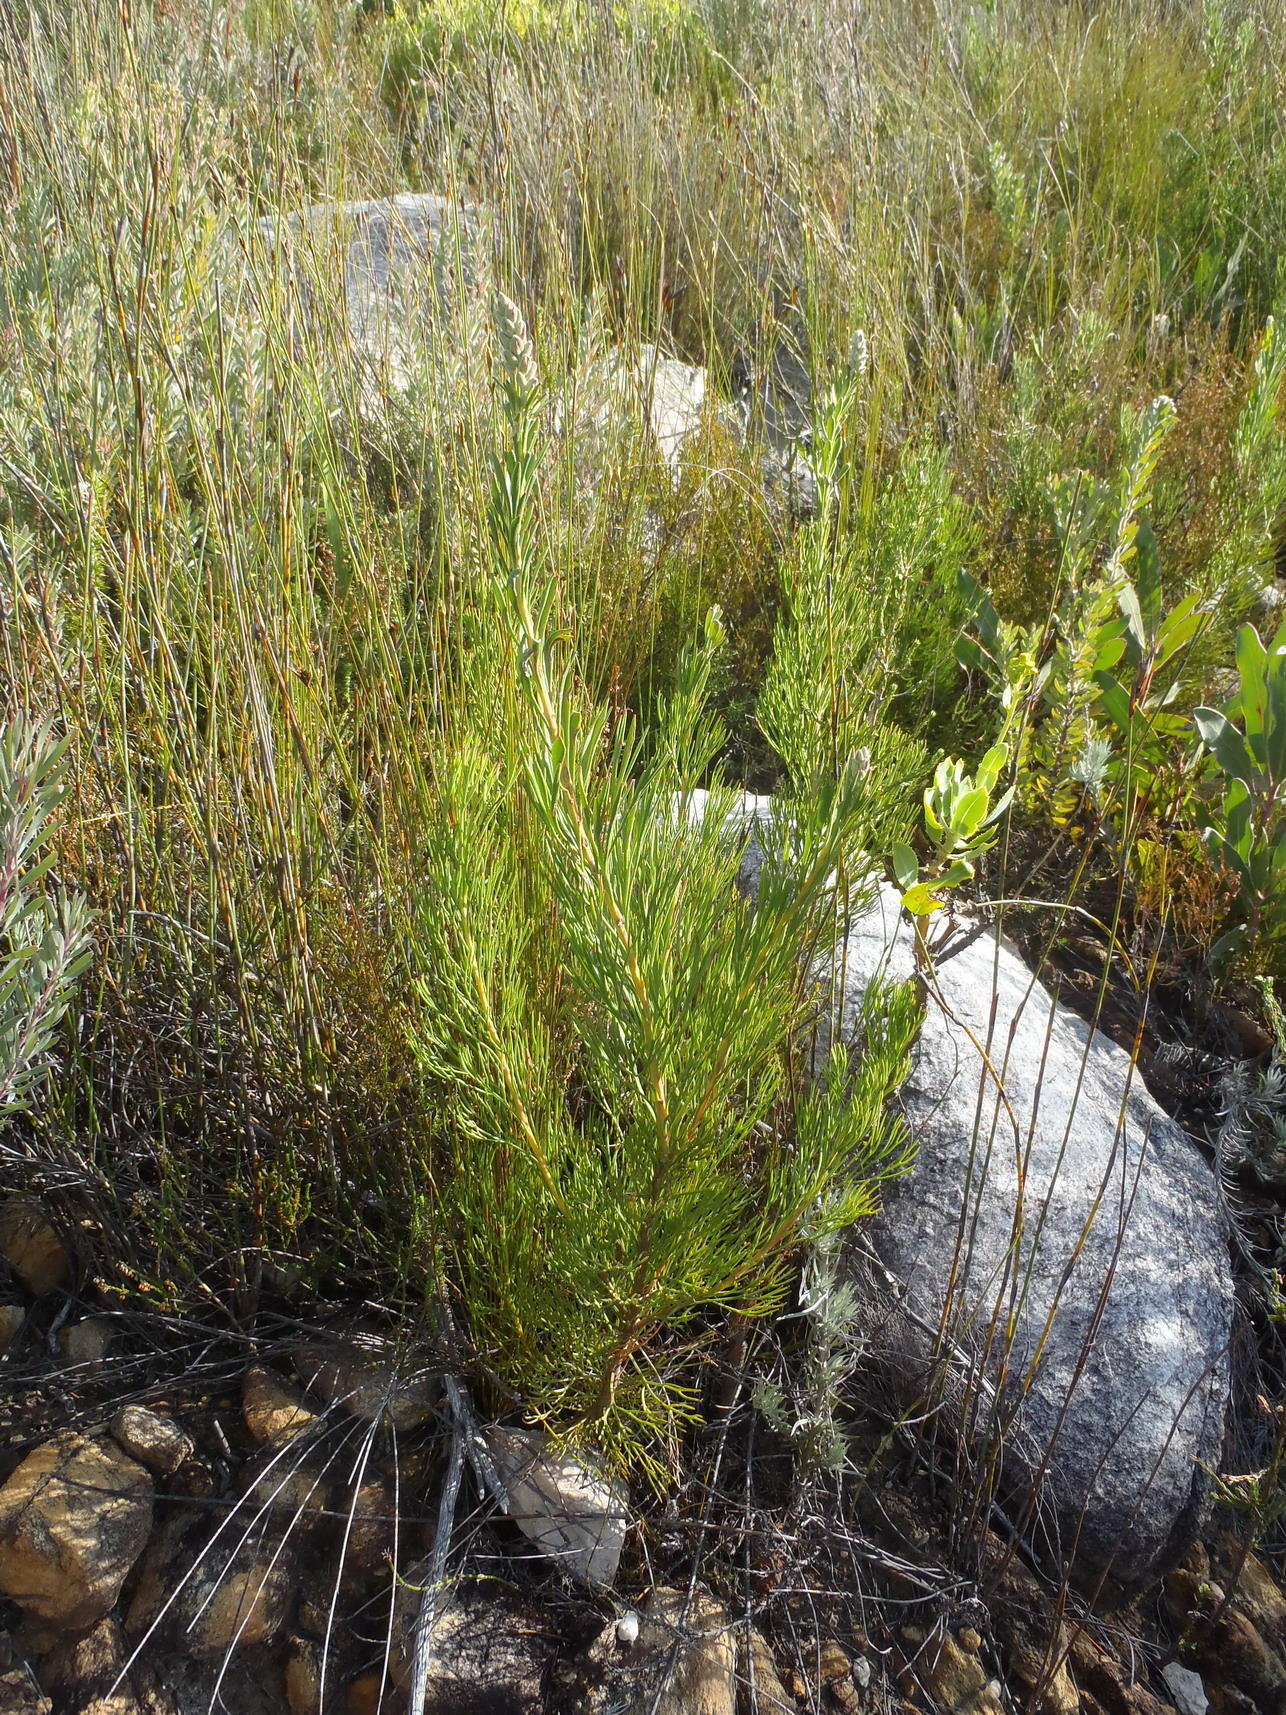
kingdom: Plantae
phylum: Tracheophyta
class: Magnoliopsida
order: Proteales
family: Proteaceae
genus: Paranomus
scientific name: Paranomus dregei
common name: Scented sceptre
